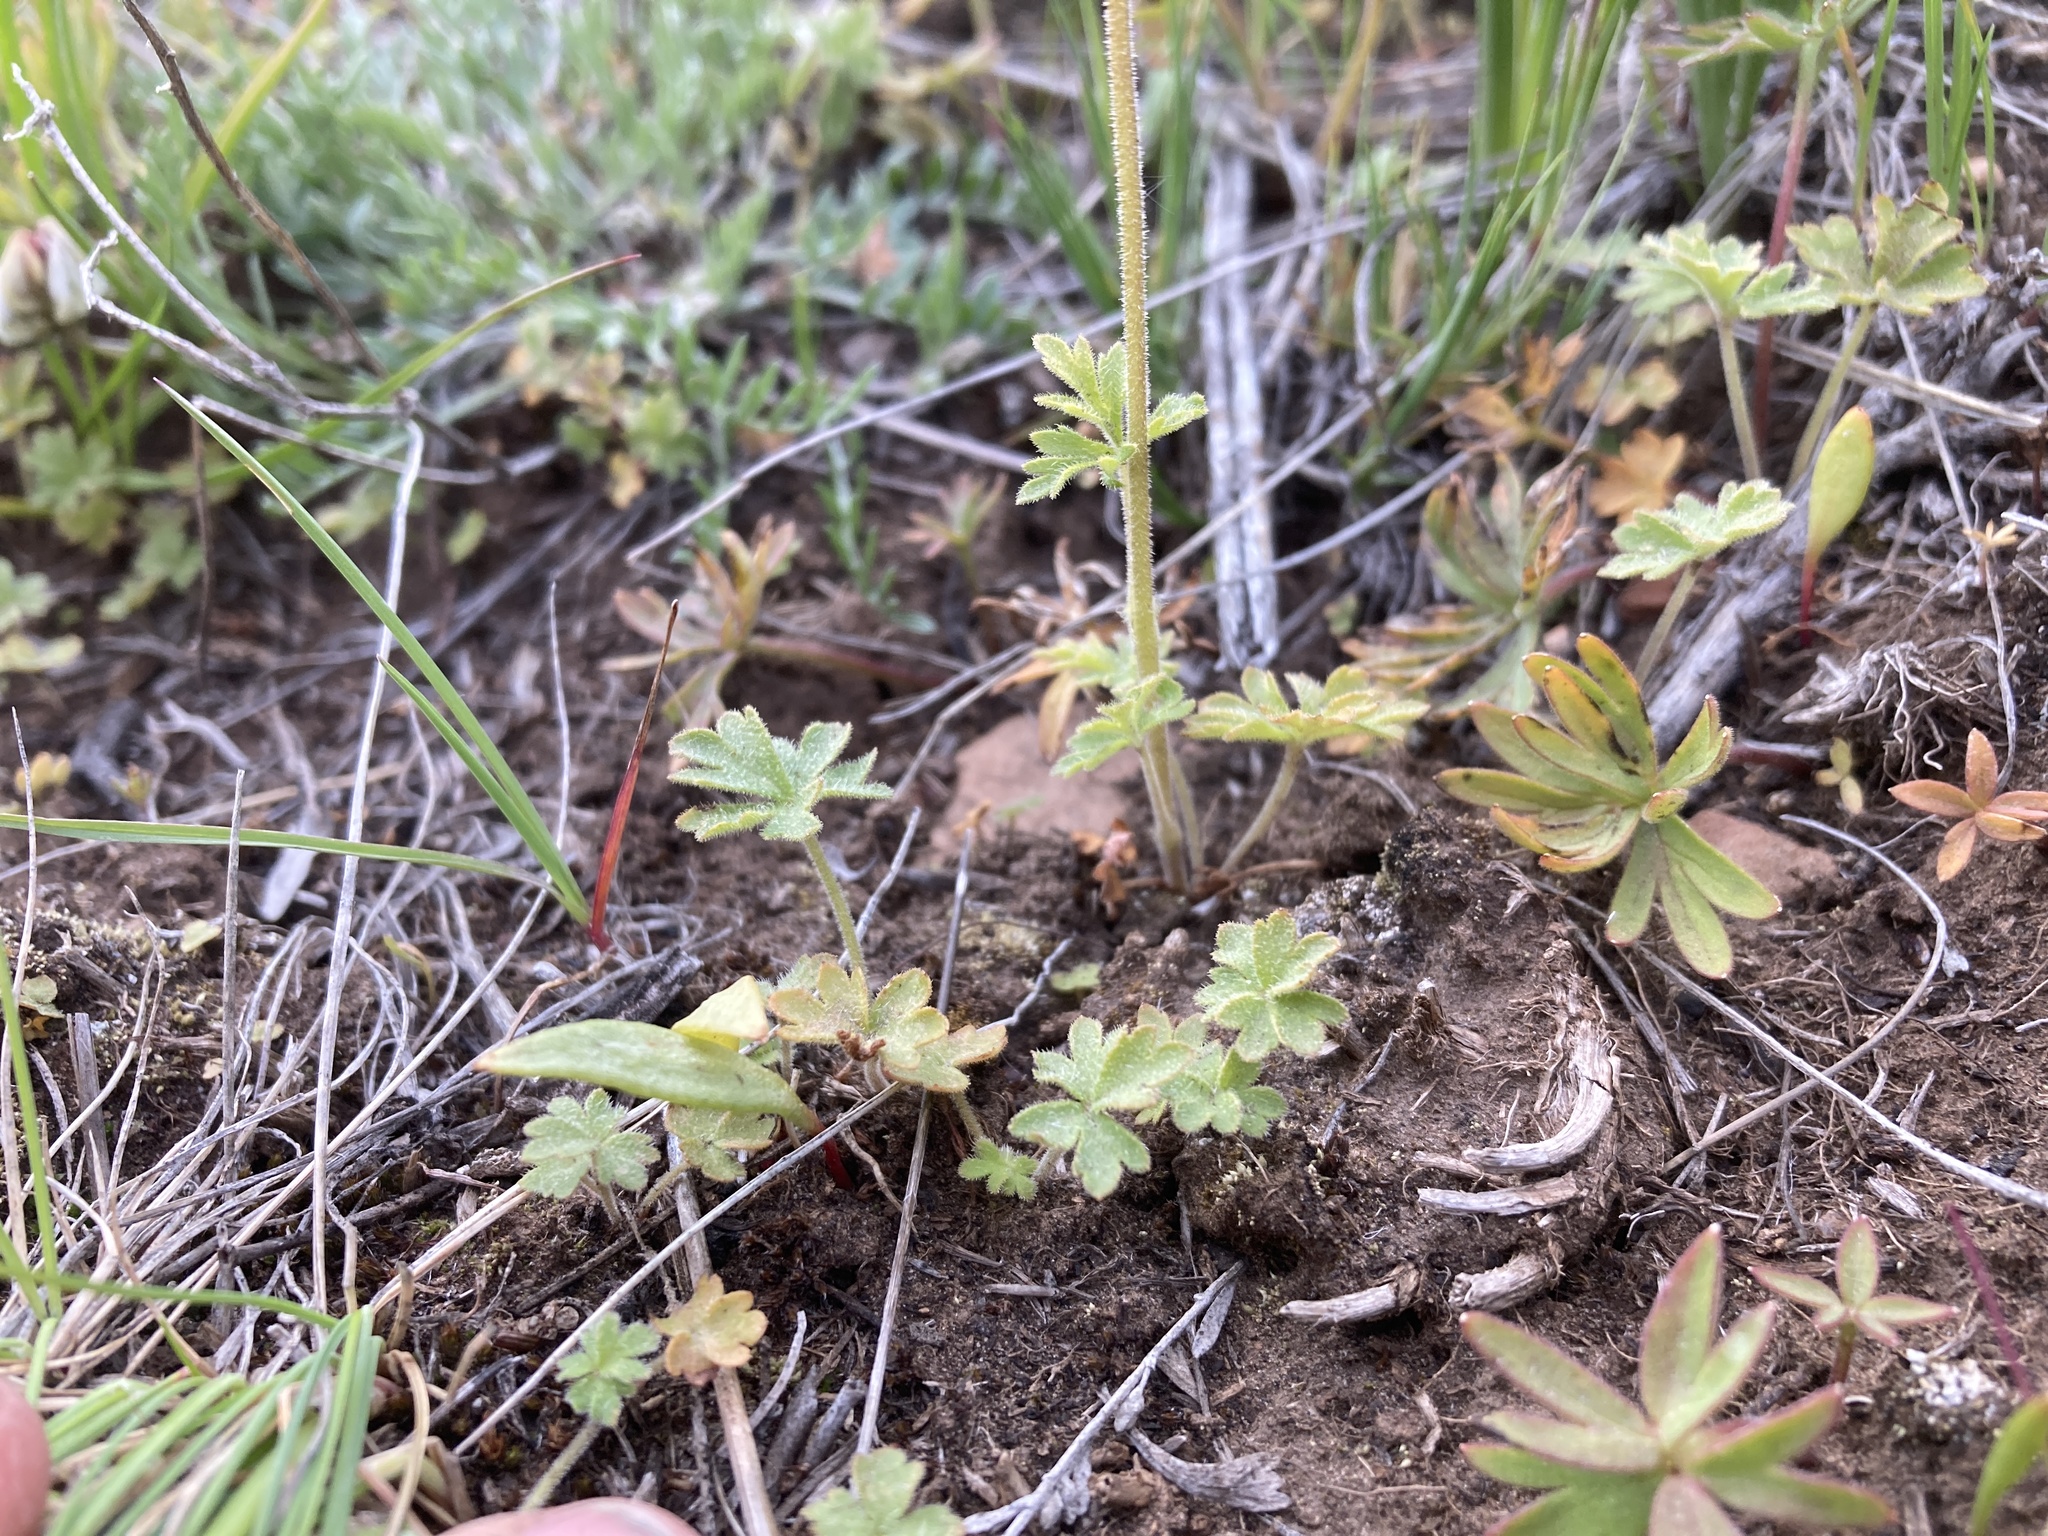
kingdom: Plantae
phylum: Tracheophyta
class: Magnoliopsida
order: Saxifragales
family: Saxifragaceae
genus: Lithophragma
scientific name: Lithophragma parviflorum
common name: Small-flowered fringe-cup
